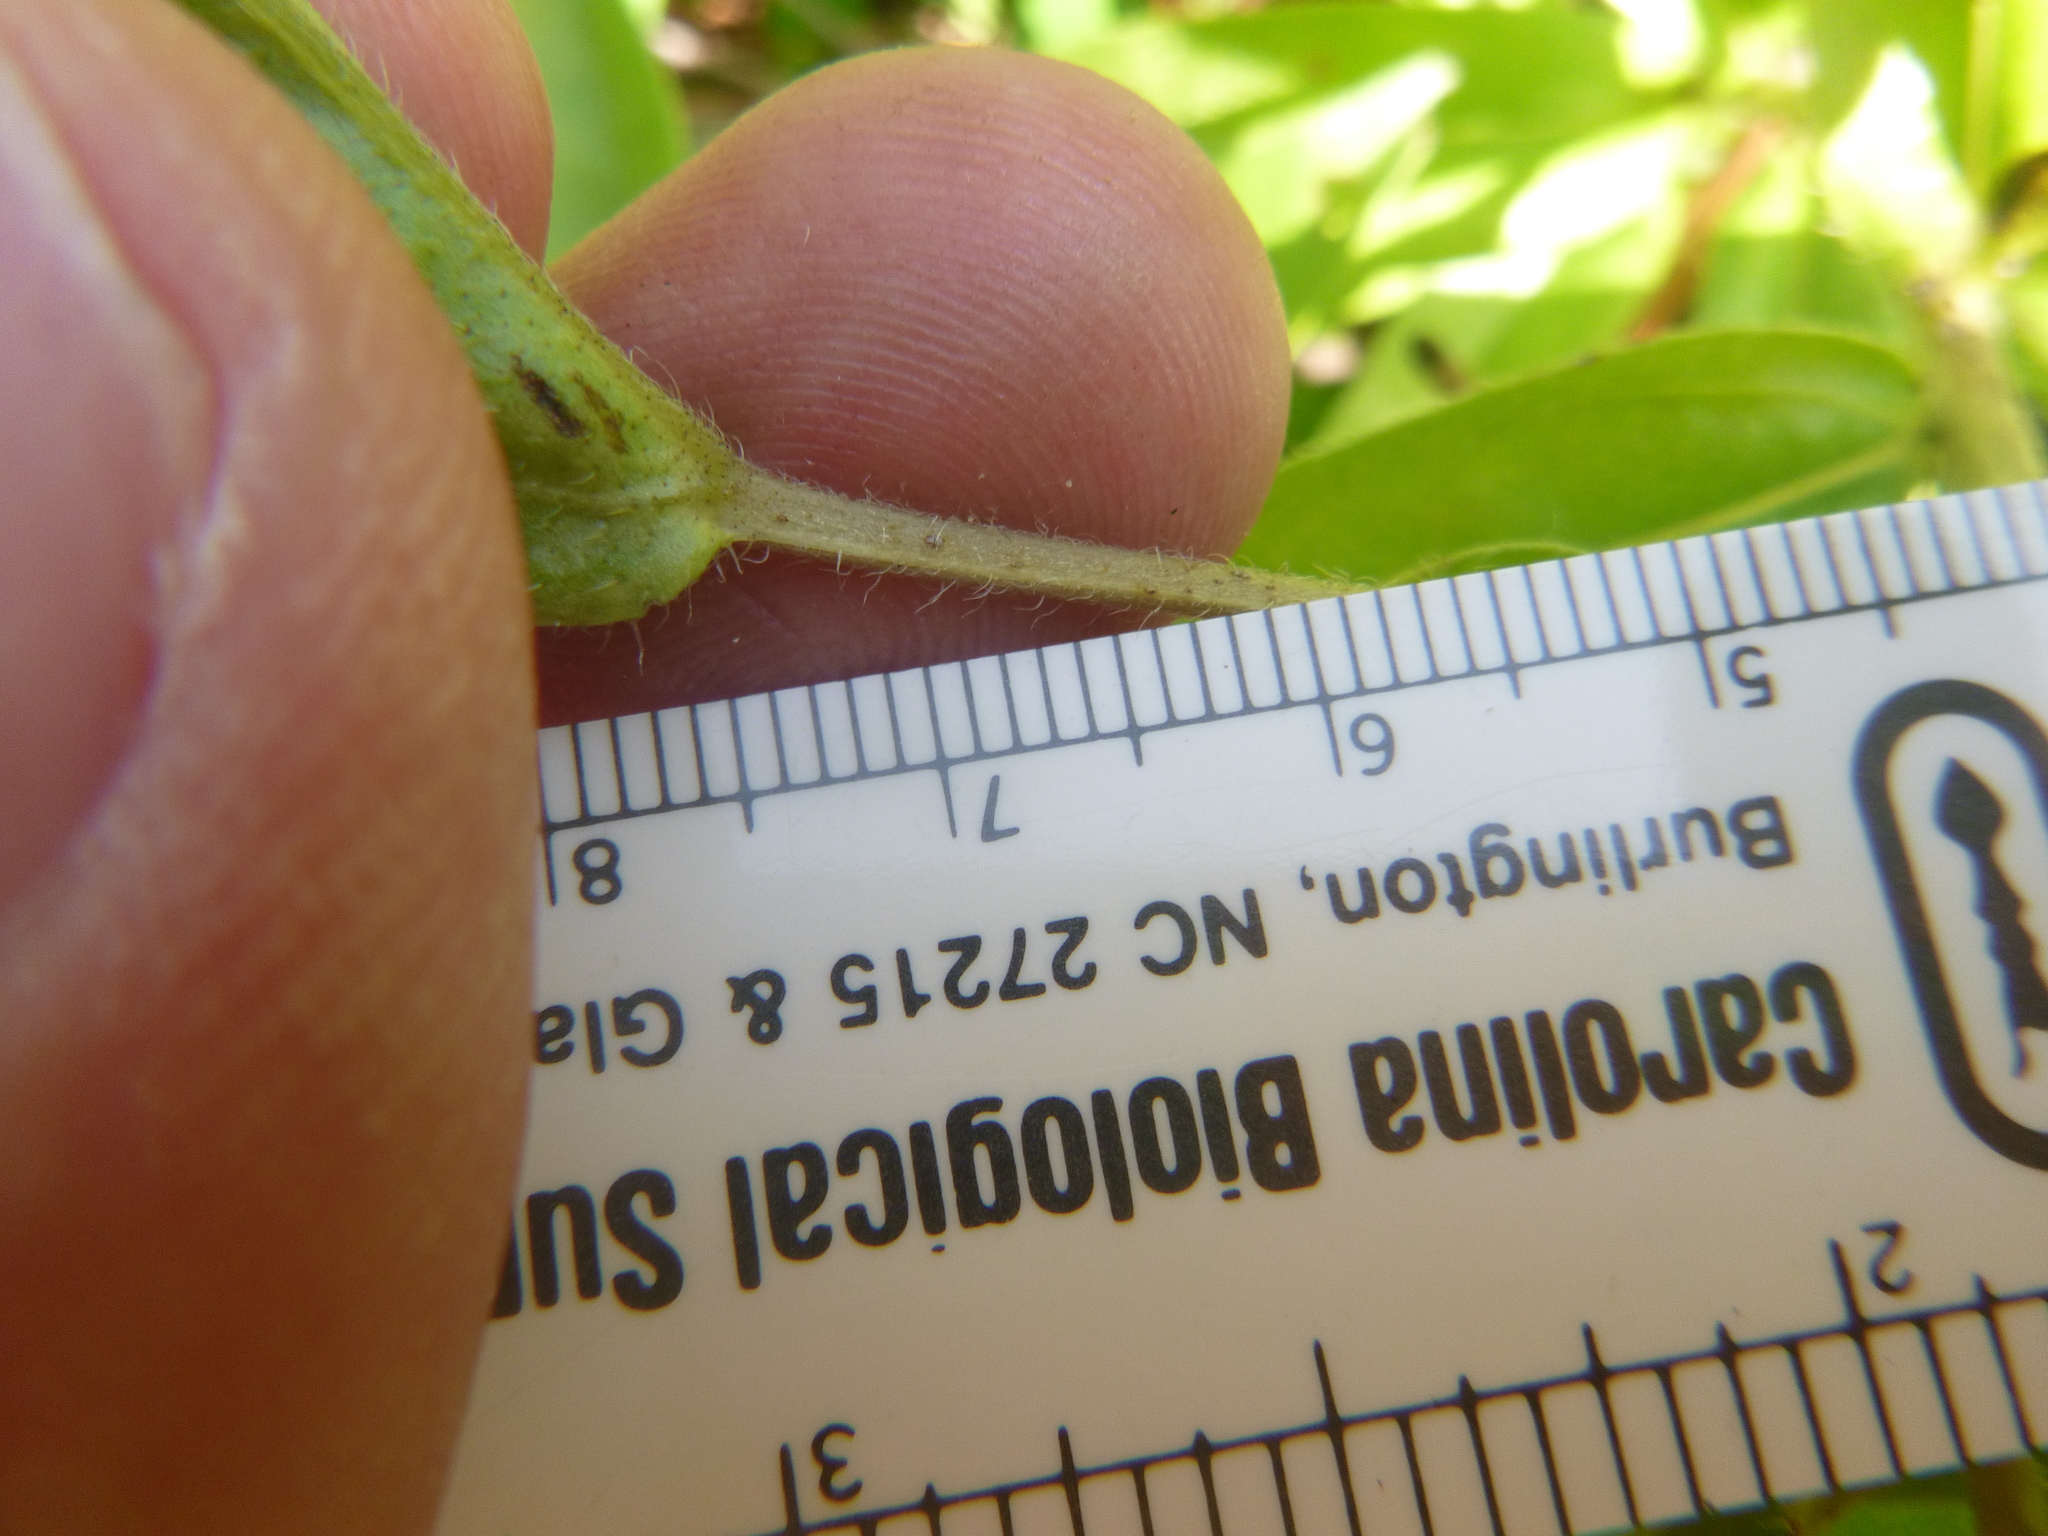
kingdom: Plantae
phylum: Tracheophyta
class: Magnoliopsida
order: Boraginales
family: Boraginaceae
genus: Lithospermum
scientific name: Lithospermum caroliniense
